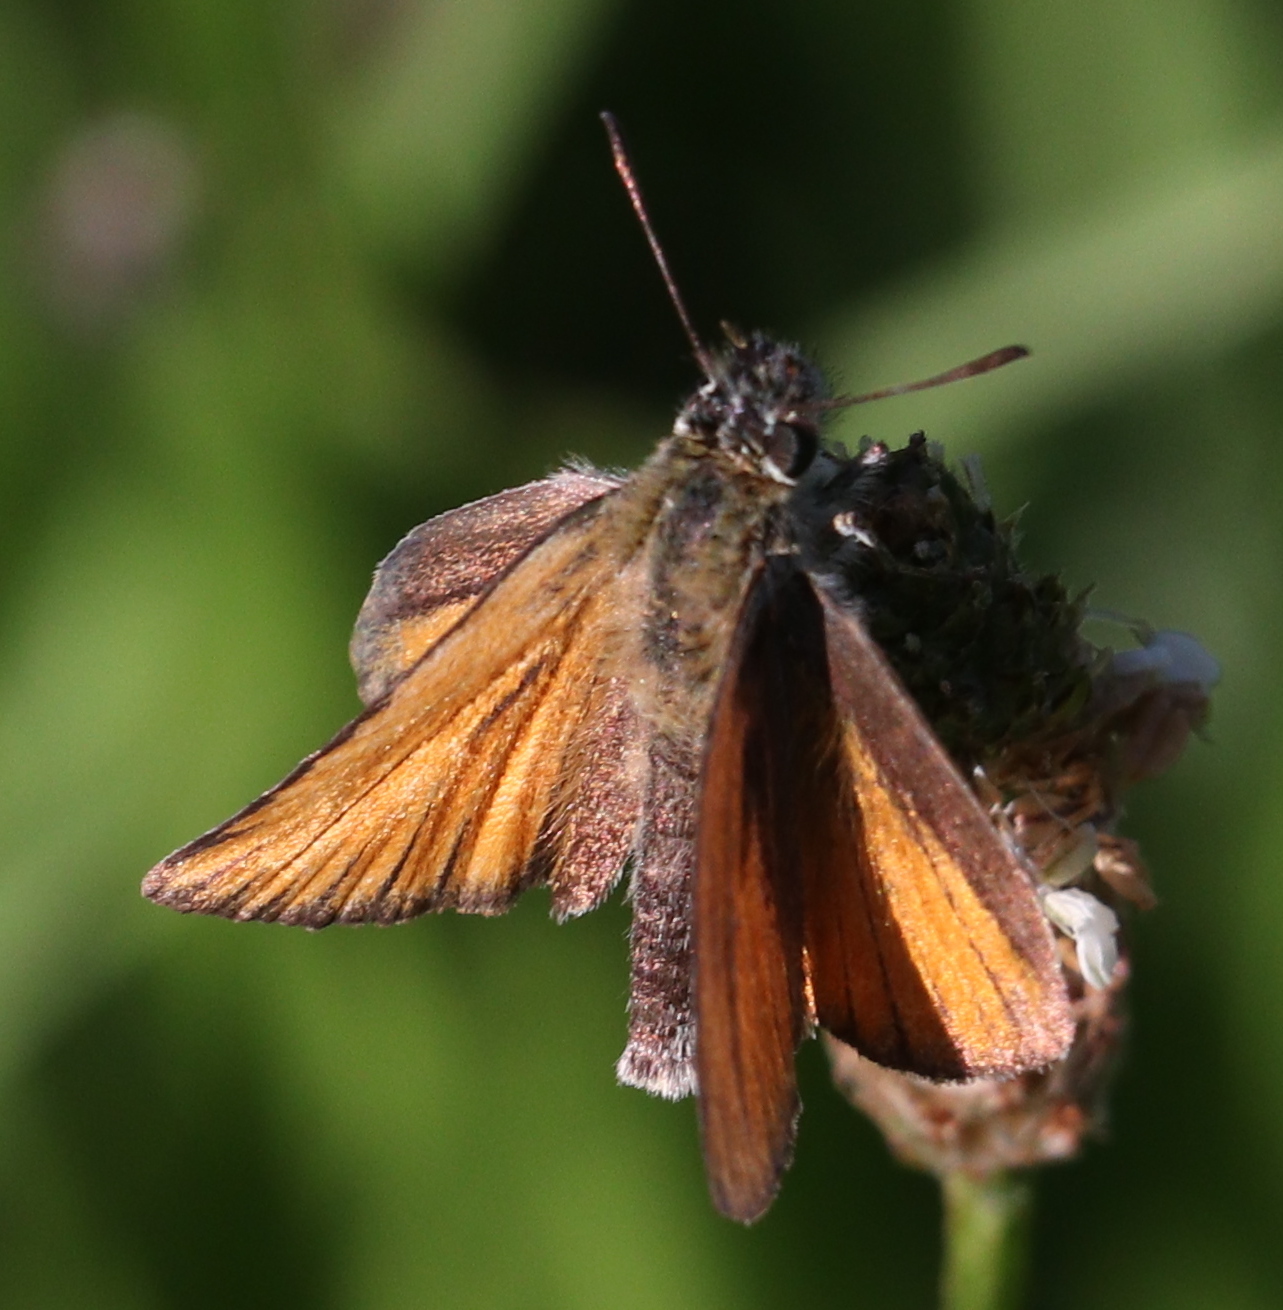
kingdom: Animalia
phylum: Arthropoda
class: Insecta
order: Lepidoptera
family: Hesperiidae
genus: Thymelicus
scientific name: Thymelicus lineola
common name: Essex skipper
